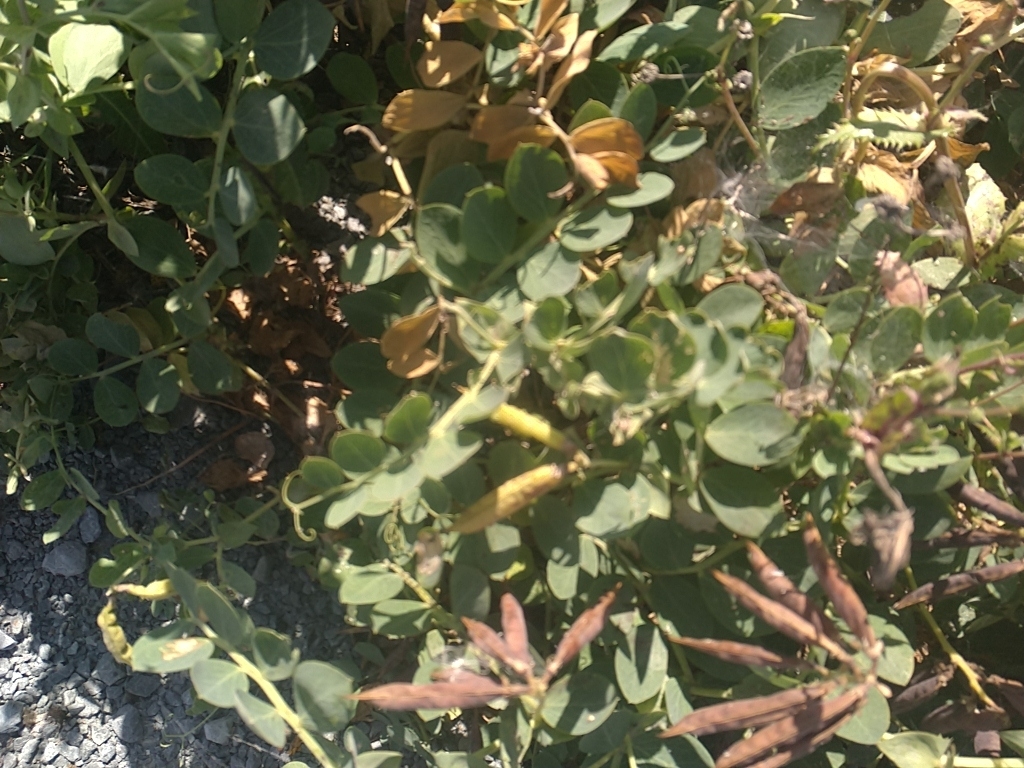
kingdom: Plantae
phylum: Tracheophyta
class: Magnoliopsida
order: Fabales
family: Fabaceae
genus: Lathyrus
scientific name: Lathyrus japonicus
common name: Sea pea
